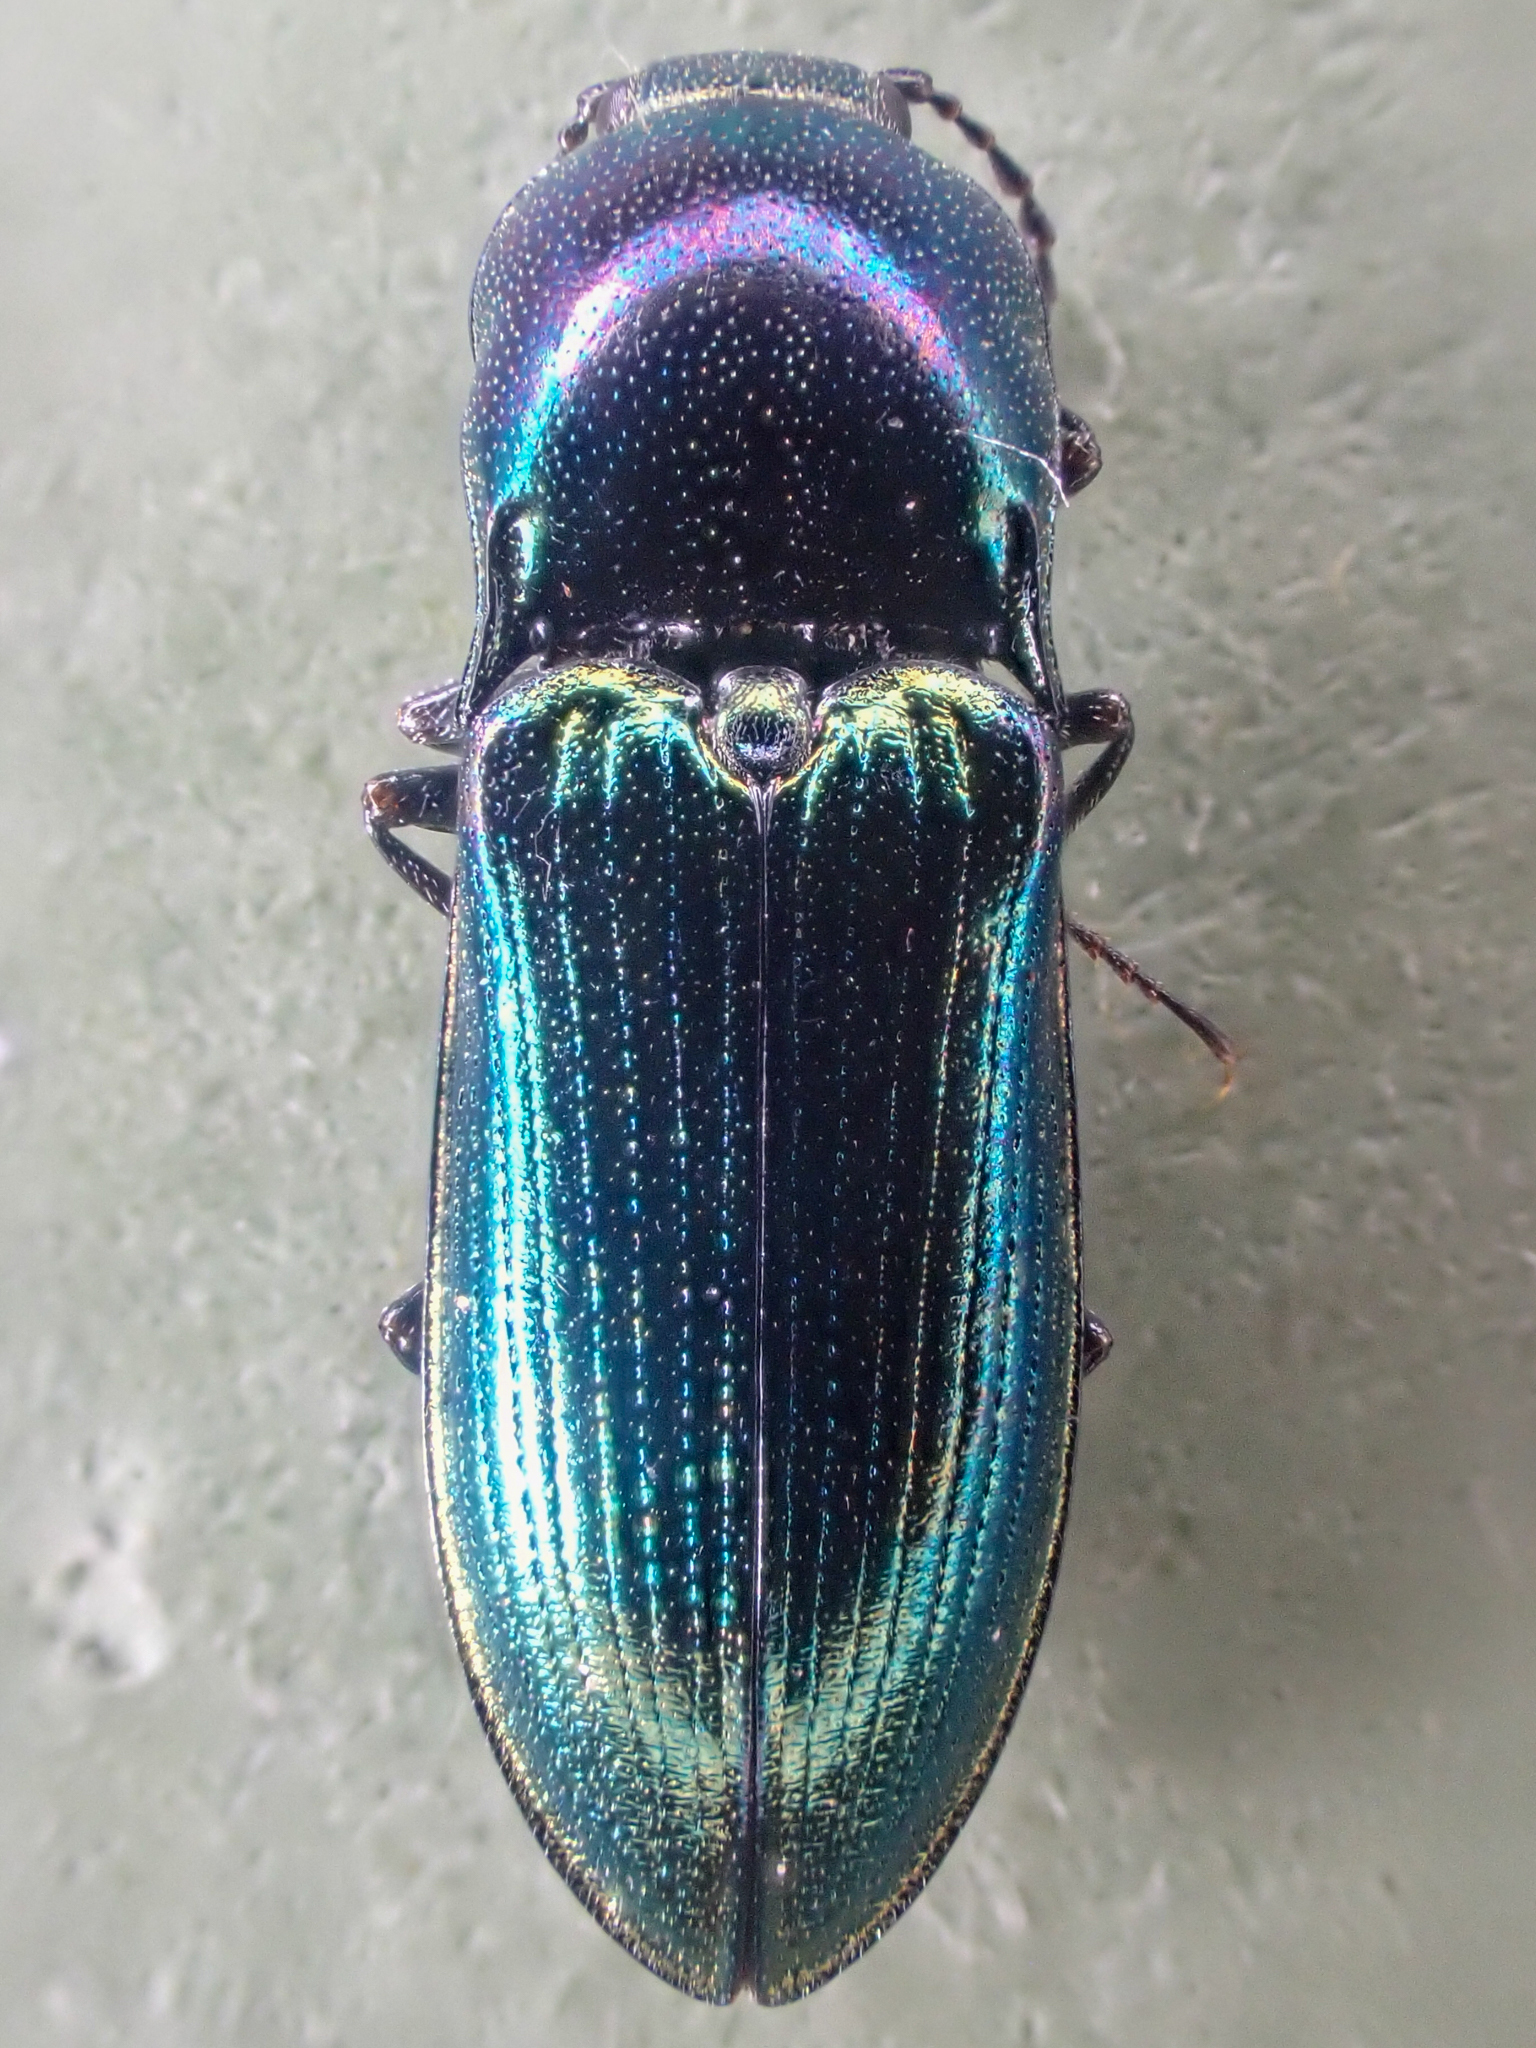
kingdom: Animalia
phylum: Arthropoda
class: Insecta
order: Coleoptera
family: Elateridae
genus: Nitidolimonius
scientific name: Nitidolimonius weidtii
